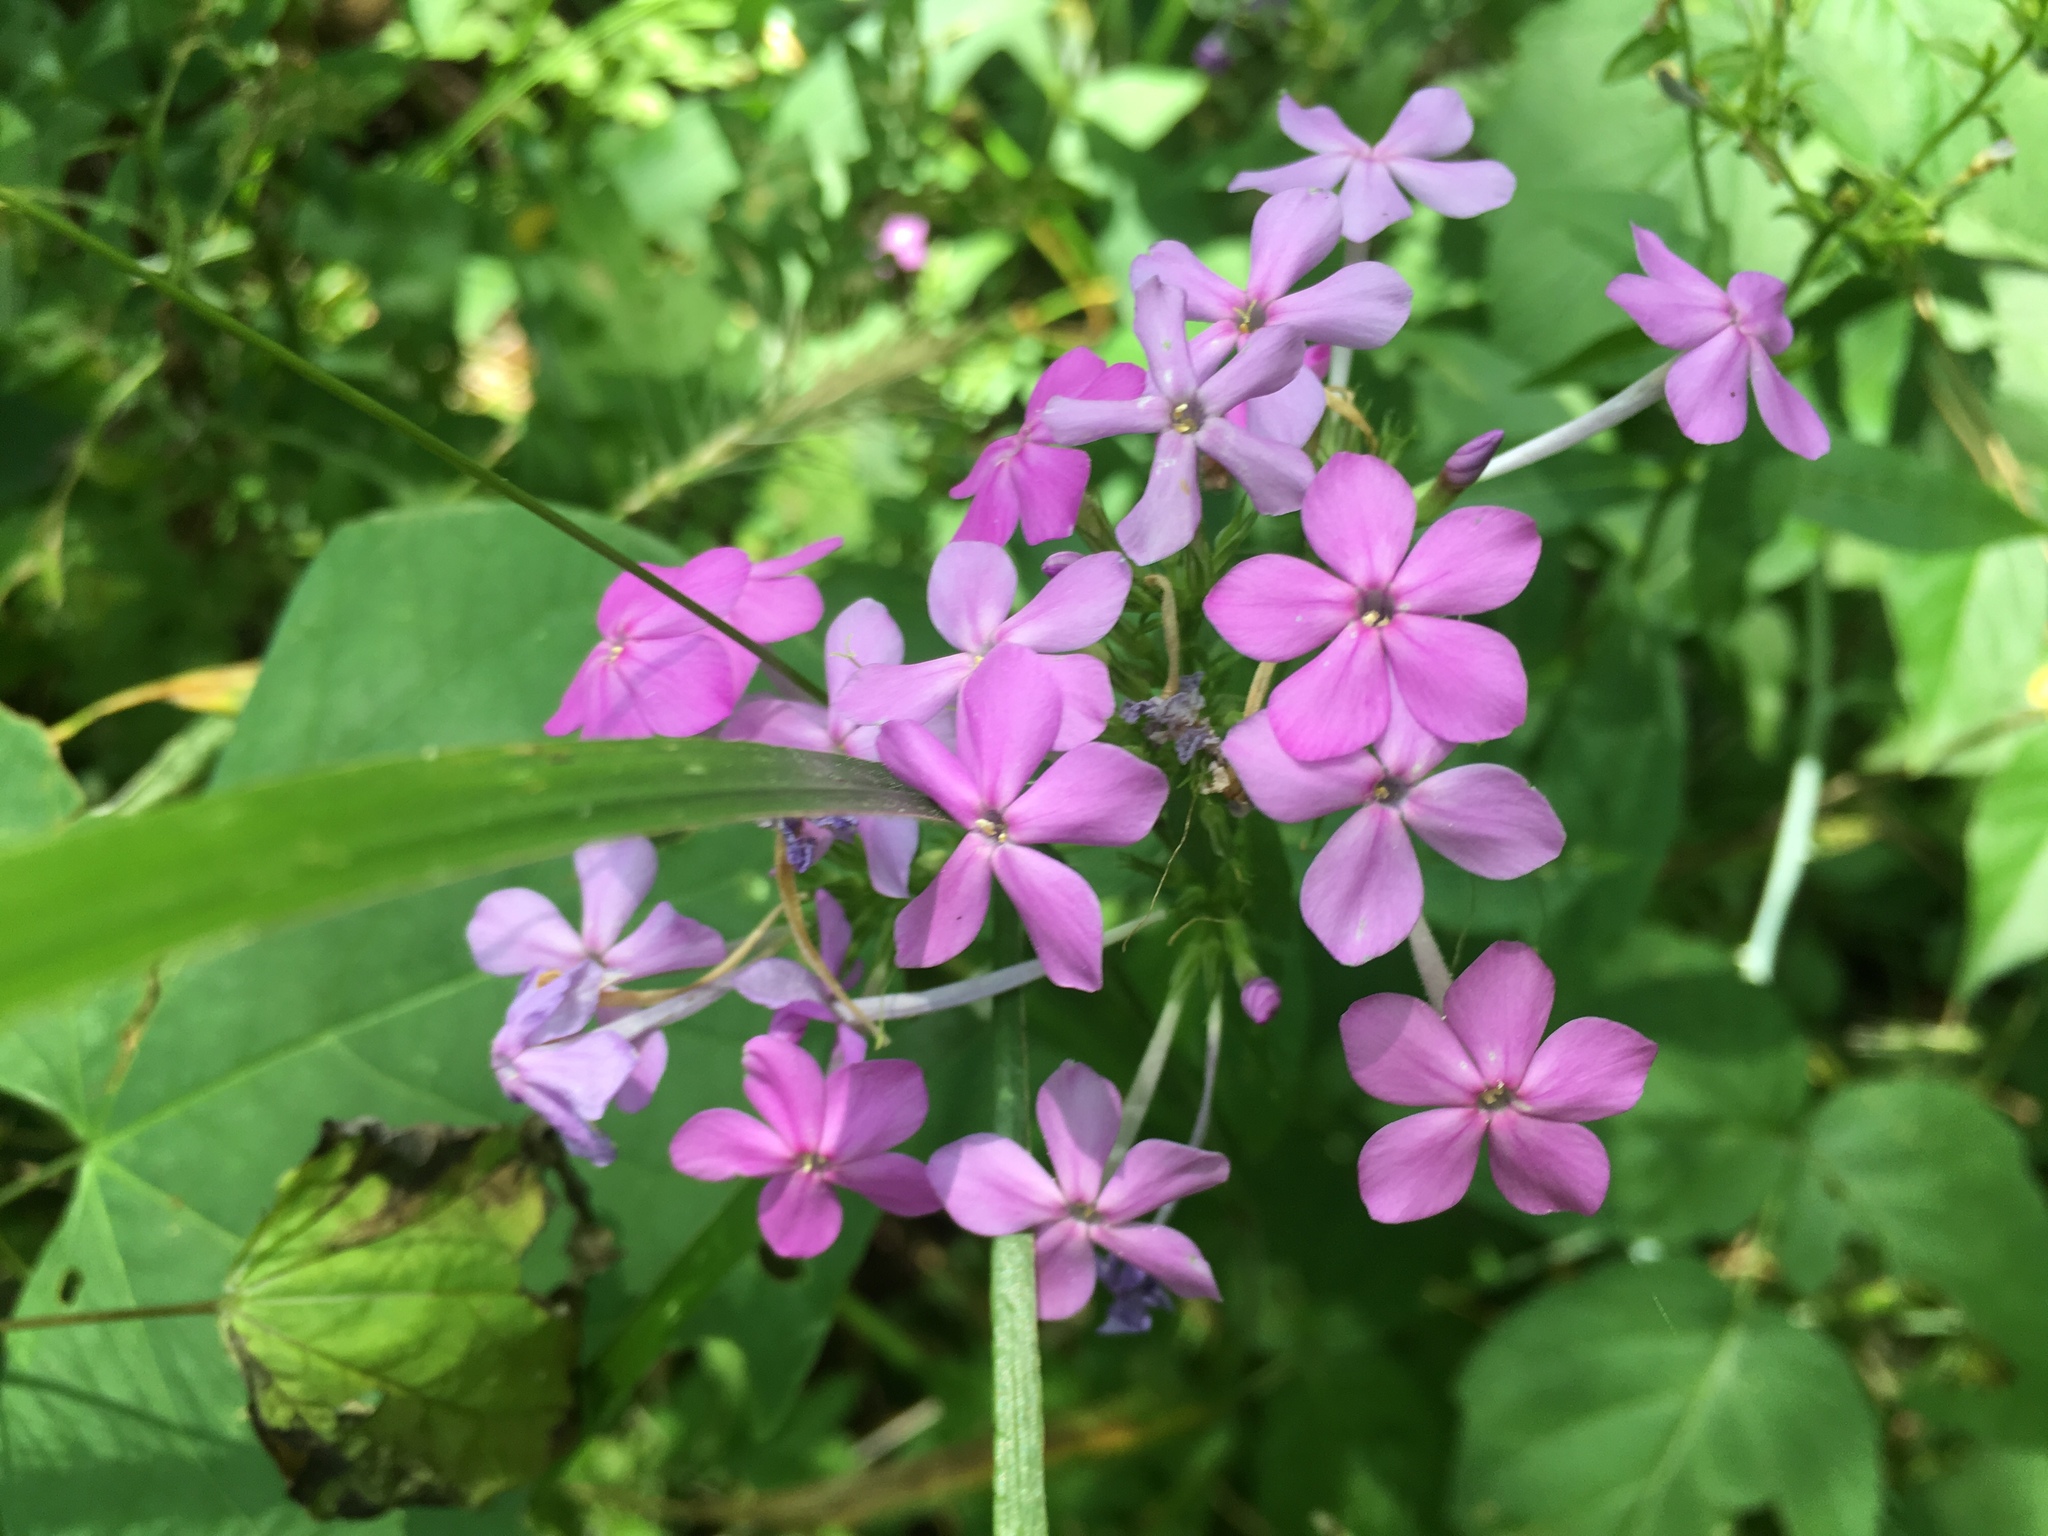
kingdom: Plantae
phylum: Tracheophyta
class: Magnoliopsida
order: Ericales
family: Polemoniaceae
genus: Phlox
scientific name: Phlox paniculata
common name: Fall phlox
